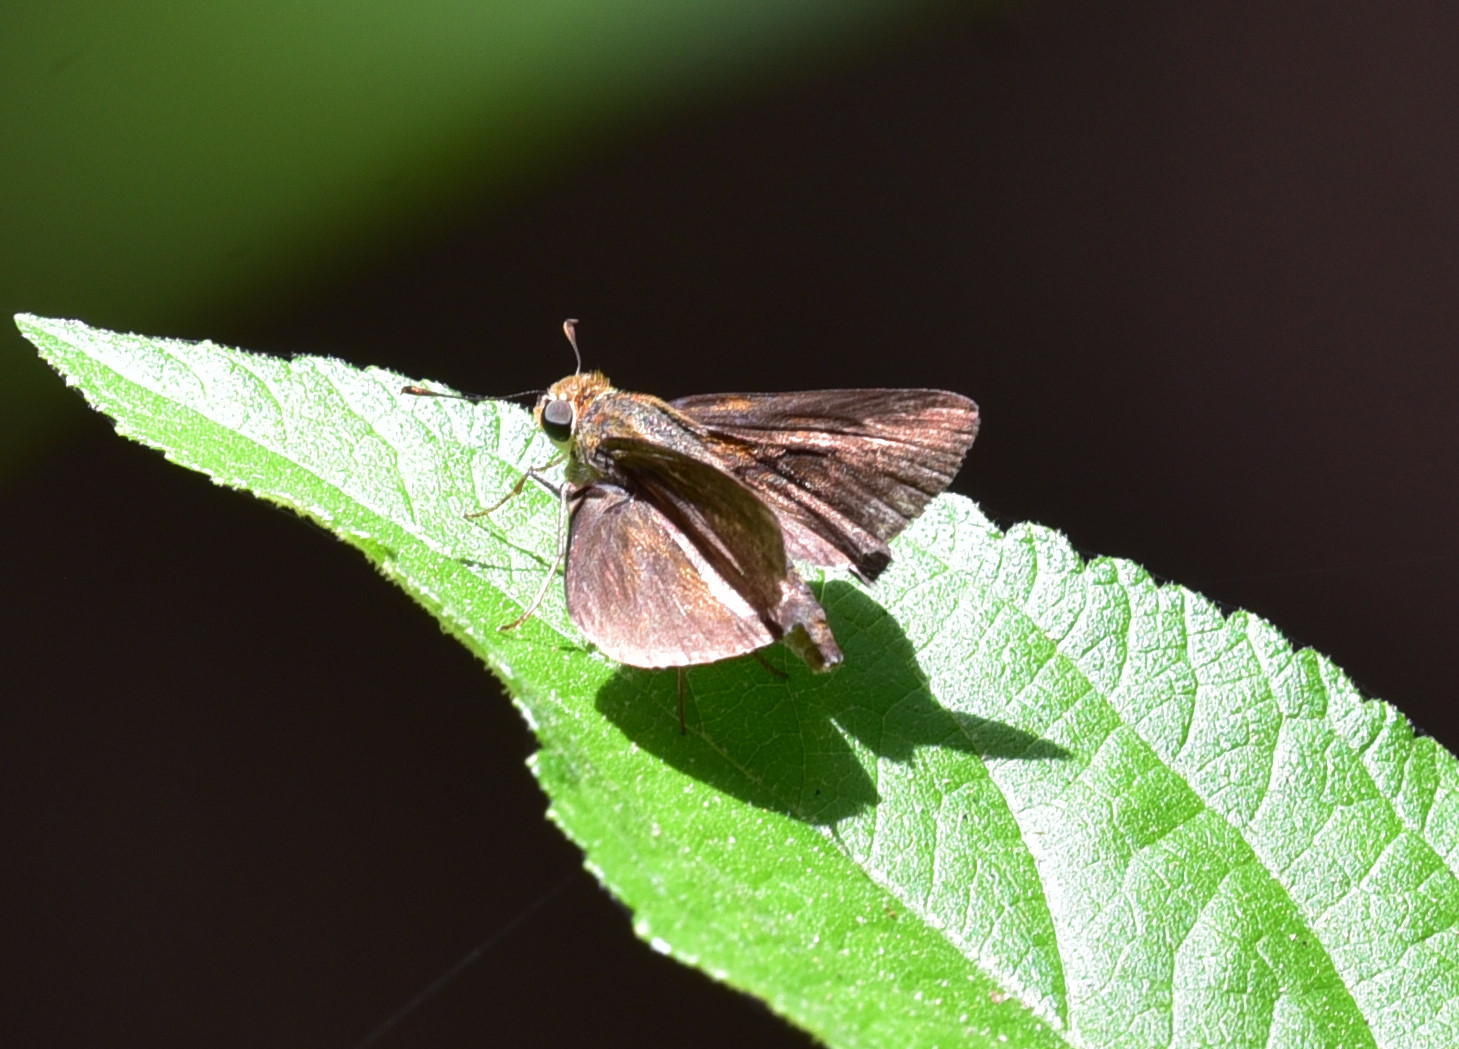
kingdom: Animalia
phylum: Arthropoda
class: Insecta
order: Lepidoptera
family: Hesperiidae
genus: Euphyes
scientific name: Euphyes vestris
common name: Dun skipper
